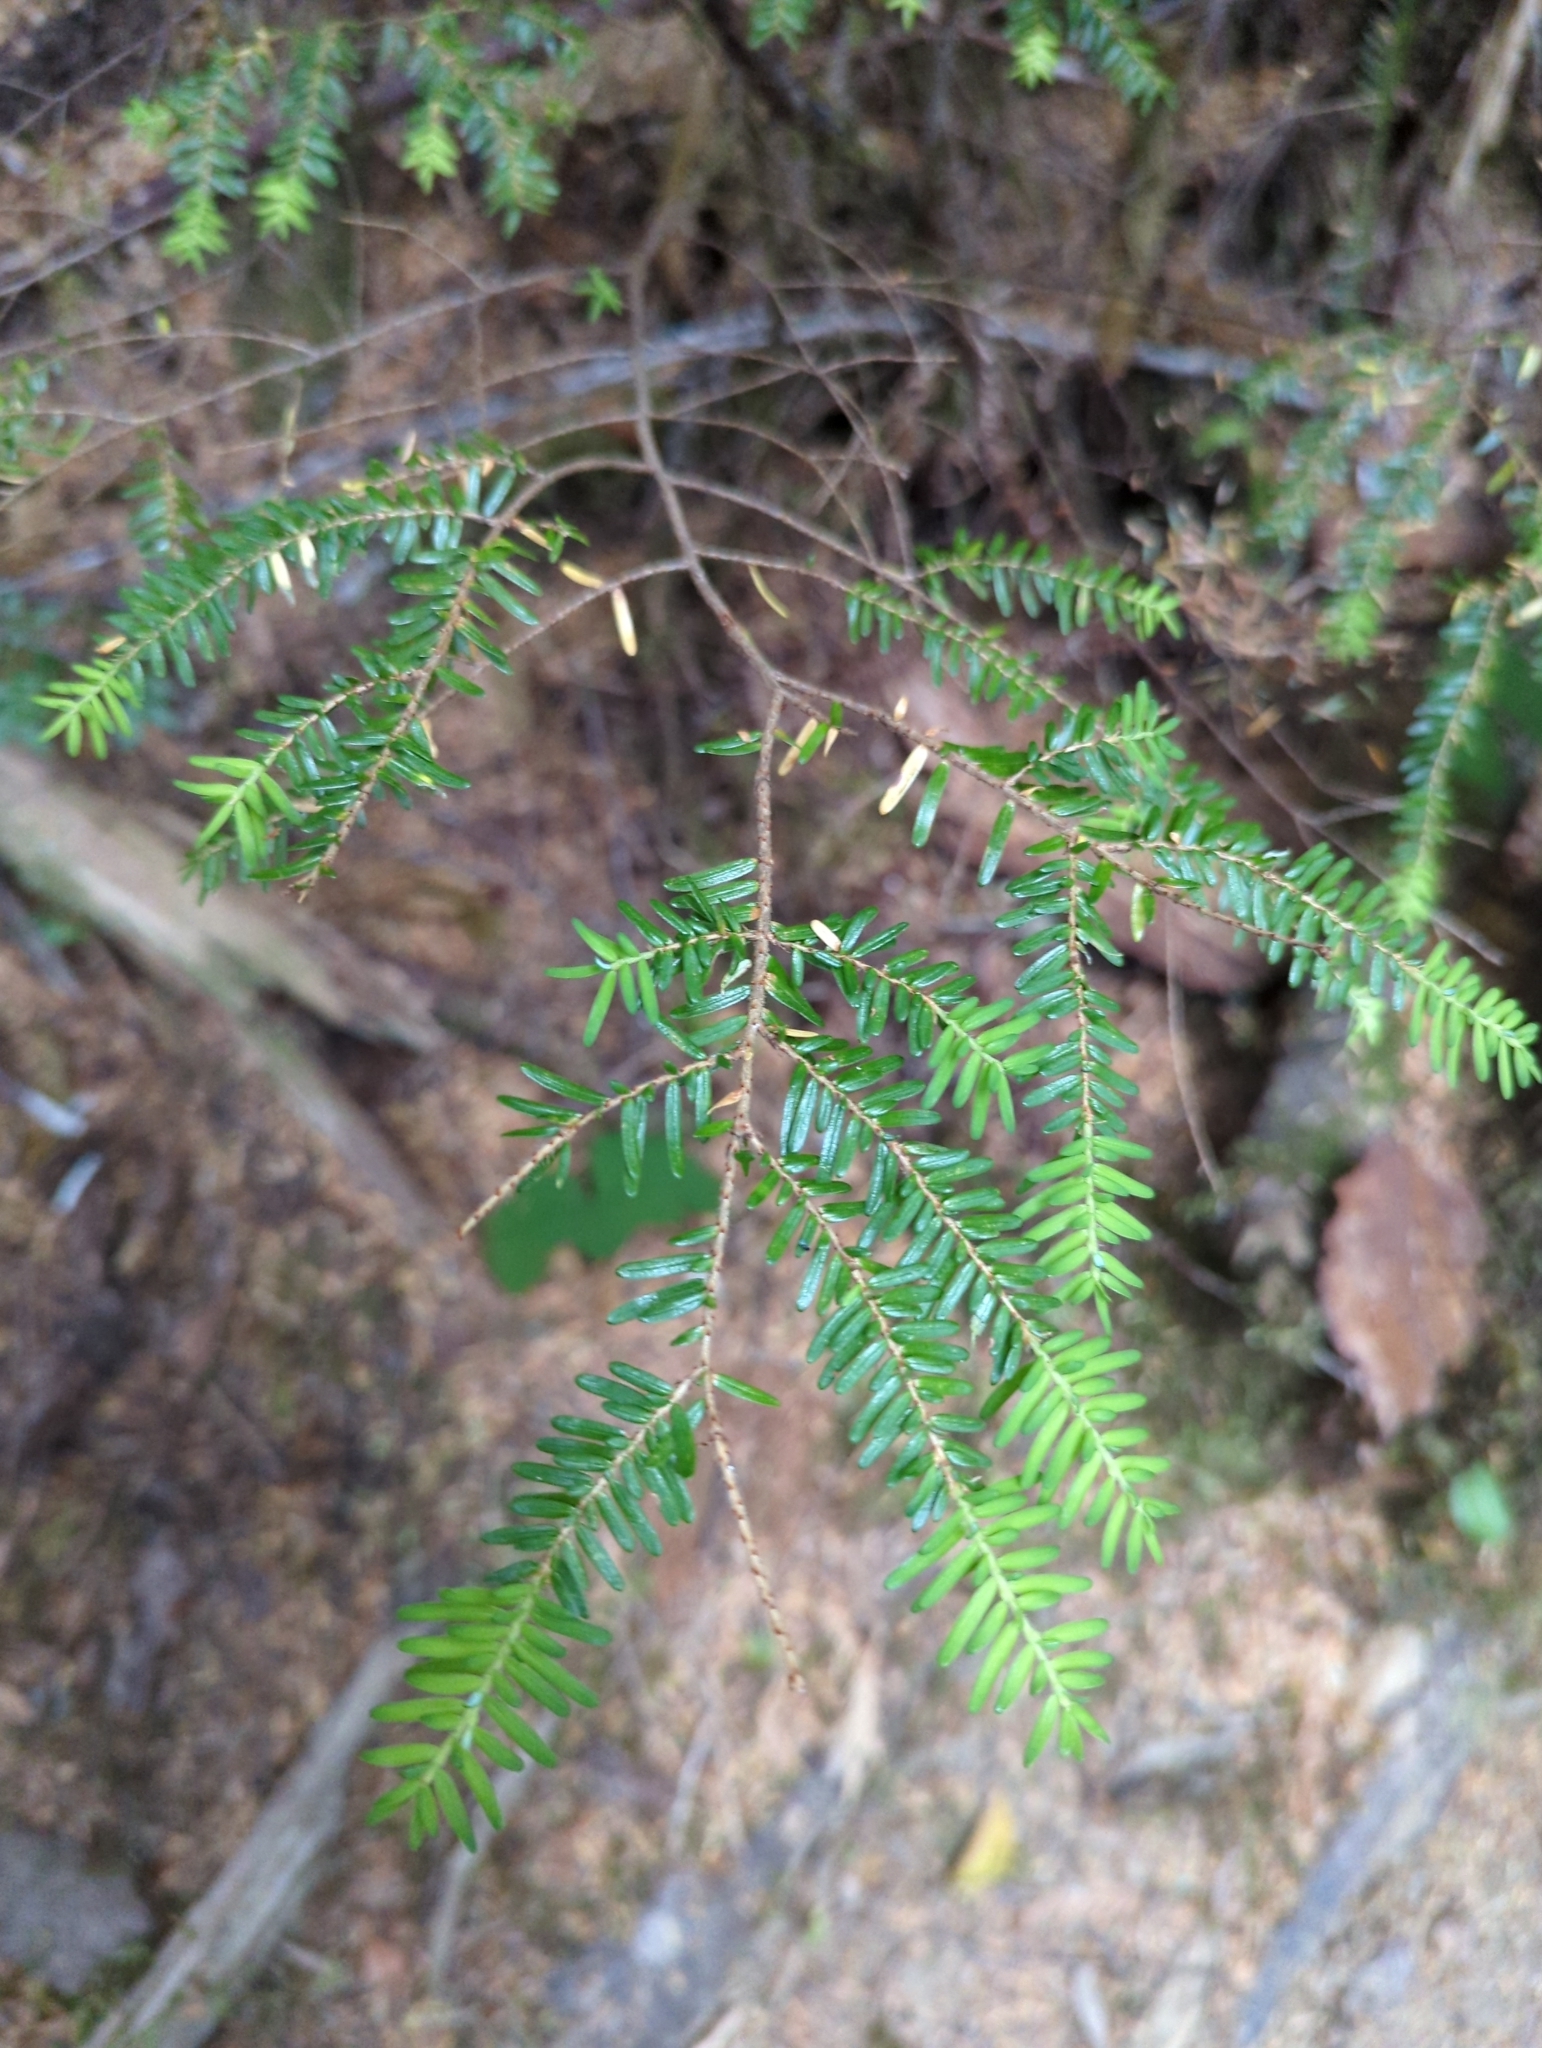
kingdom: Plantae
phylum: Tracheophyta
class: Pinopsida
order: Pinales
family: Pinaceae
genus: Tsuga
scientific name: Tsuga heterophylla
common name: Western hemlock
